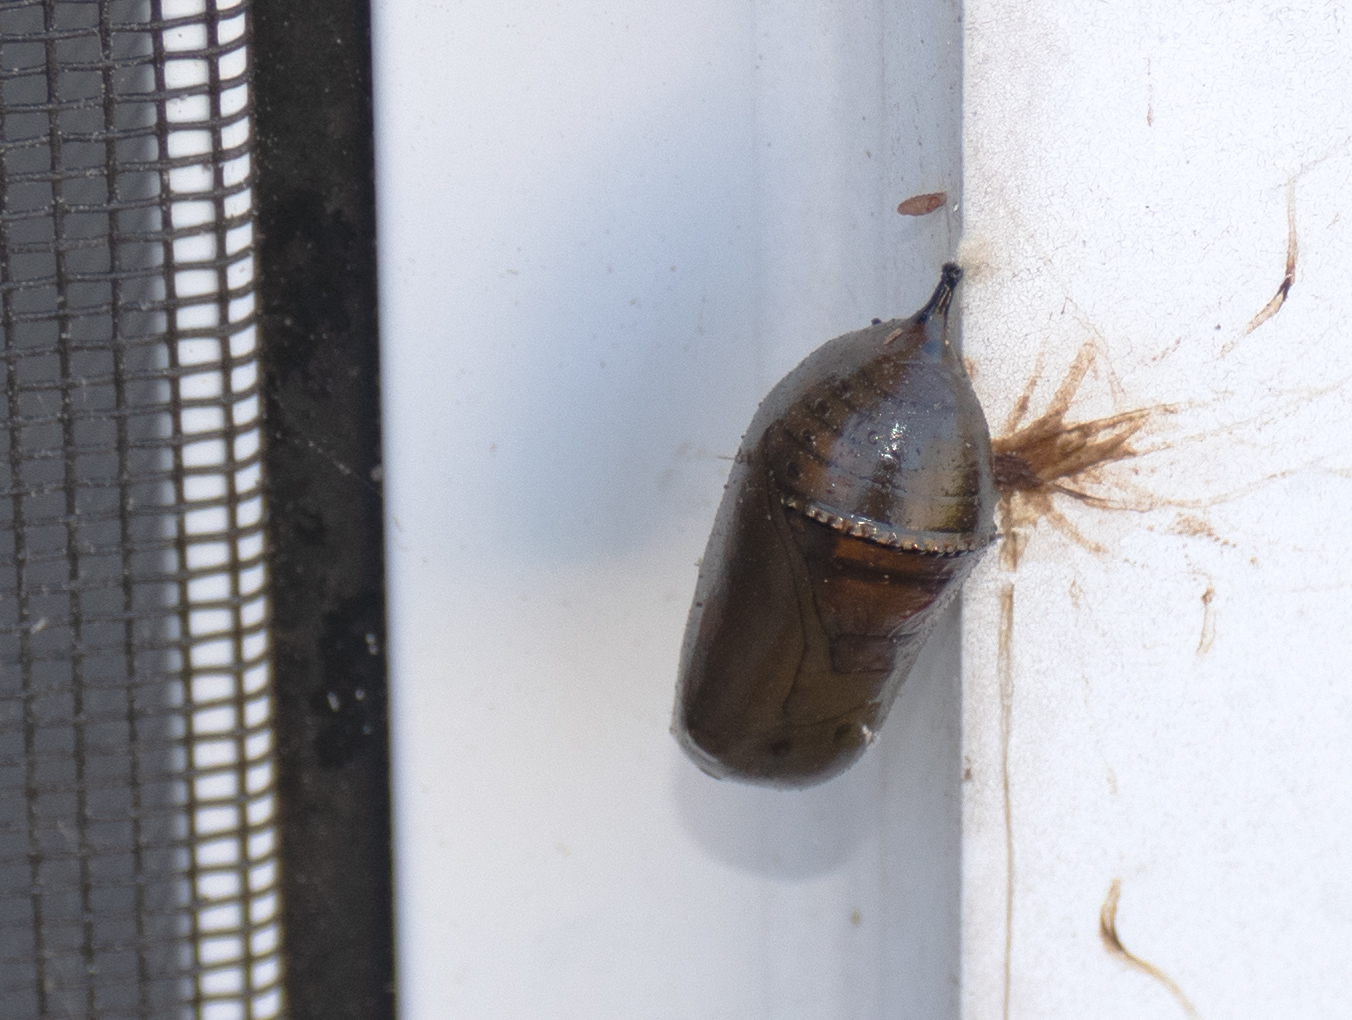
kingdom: Animalia
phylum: Arthropoda
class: Insecta
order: Lepidoptera
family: Nymphalidae
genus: Danaus
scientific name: Danaus plexippus
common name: Monarch
